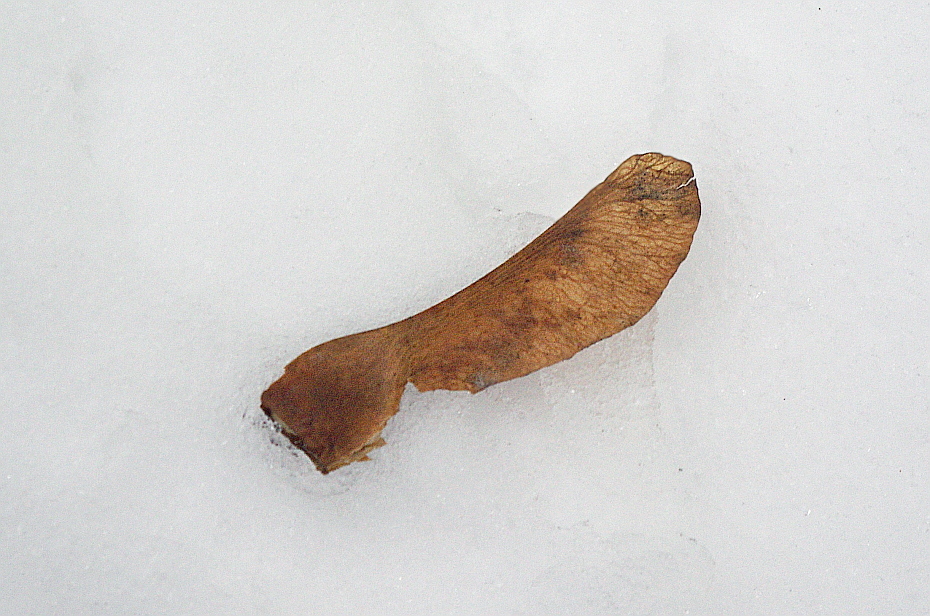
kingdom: Plantae
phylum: Tracheophyta
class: Magnoliopsida
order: Sapindales
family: Sapindaceae
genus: Acer
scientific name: Acer platanoides
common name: Norway maple
